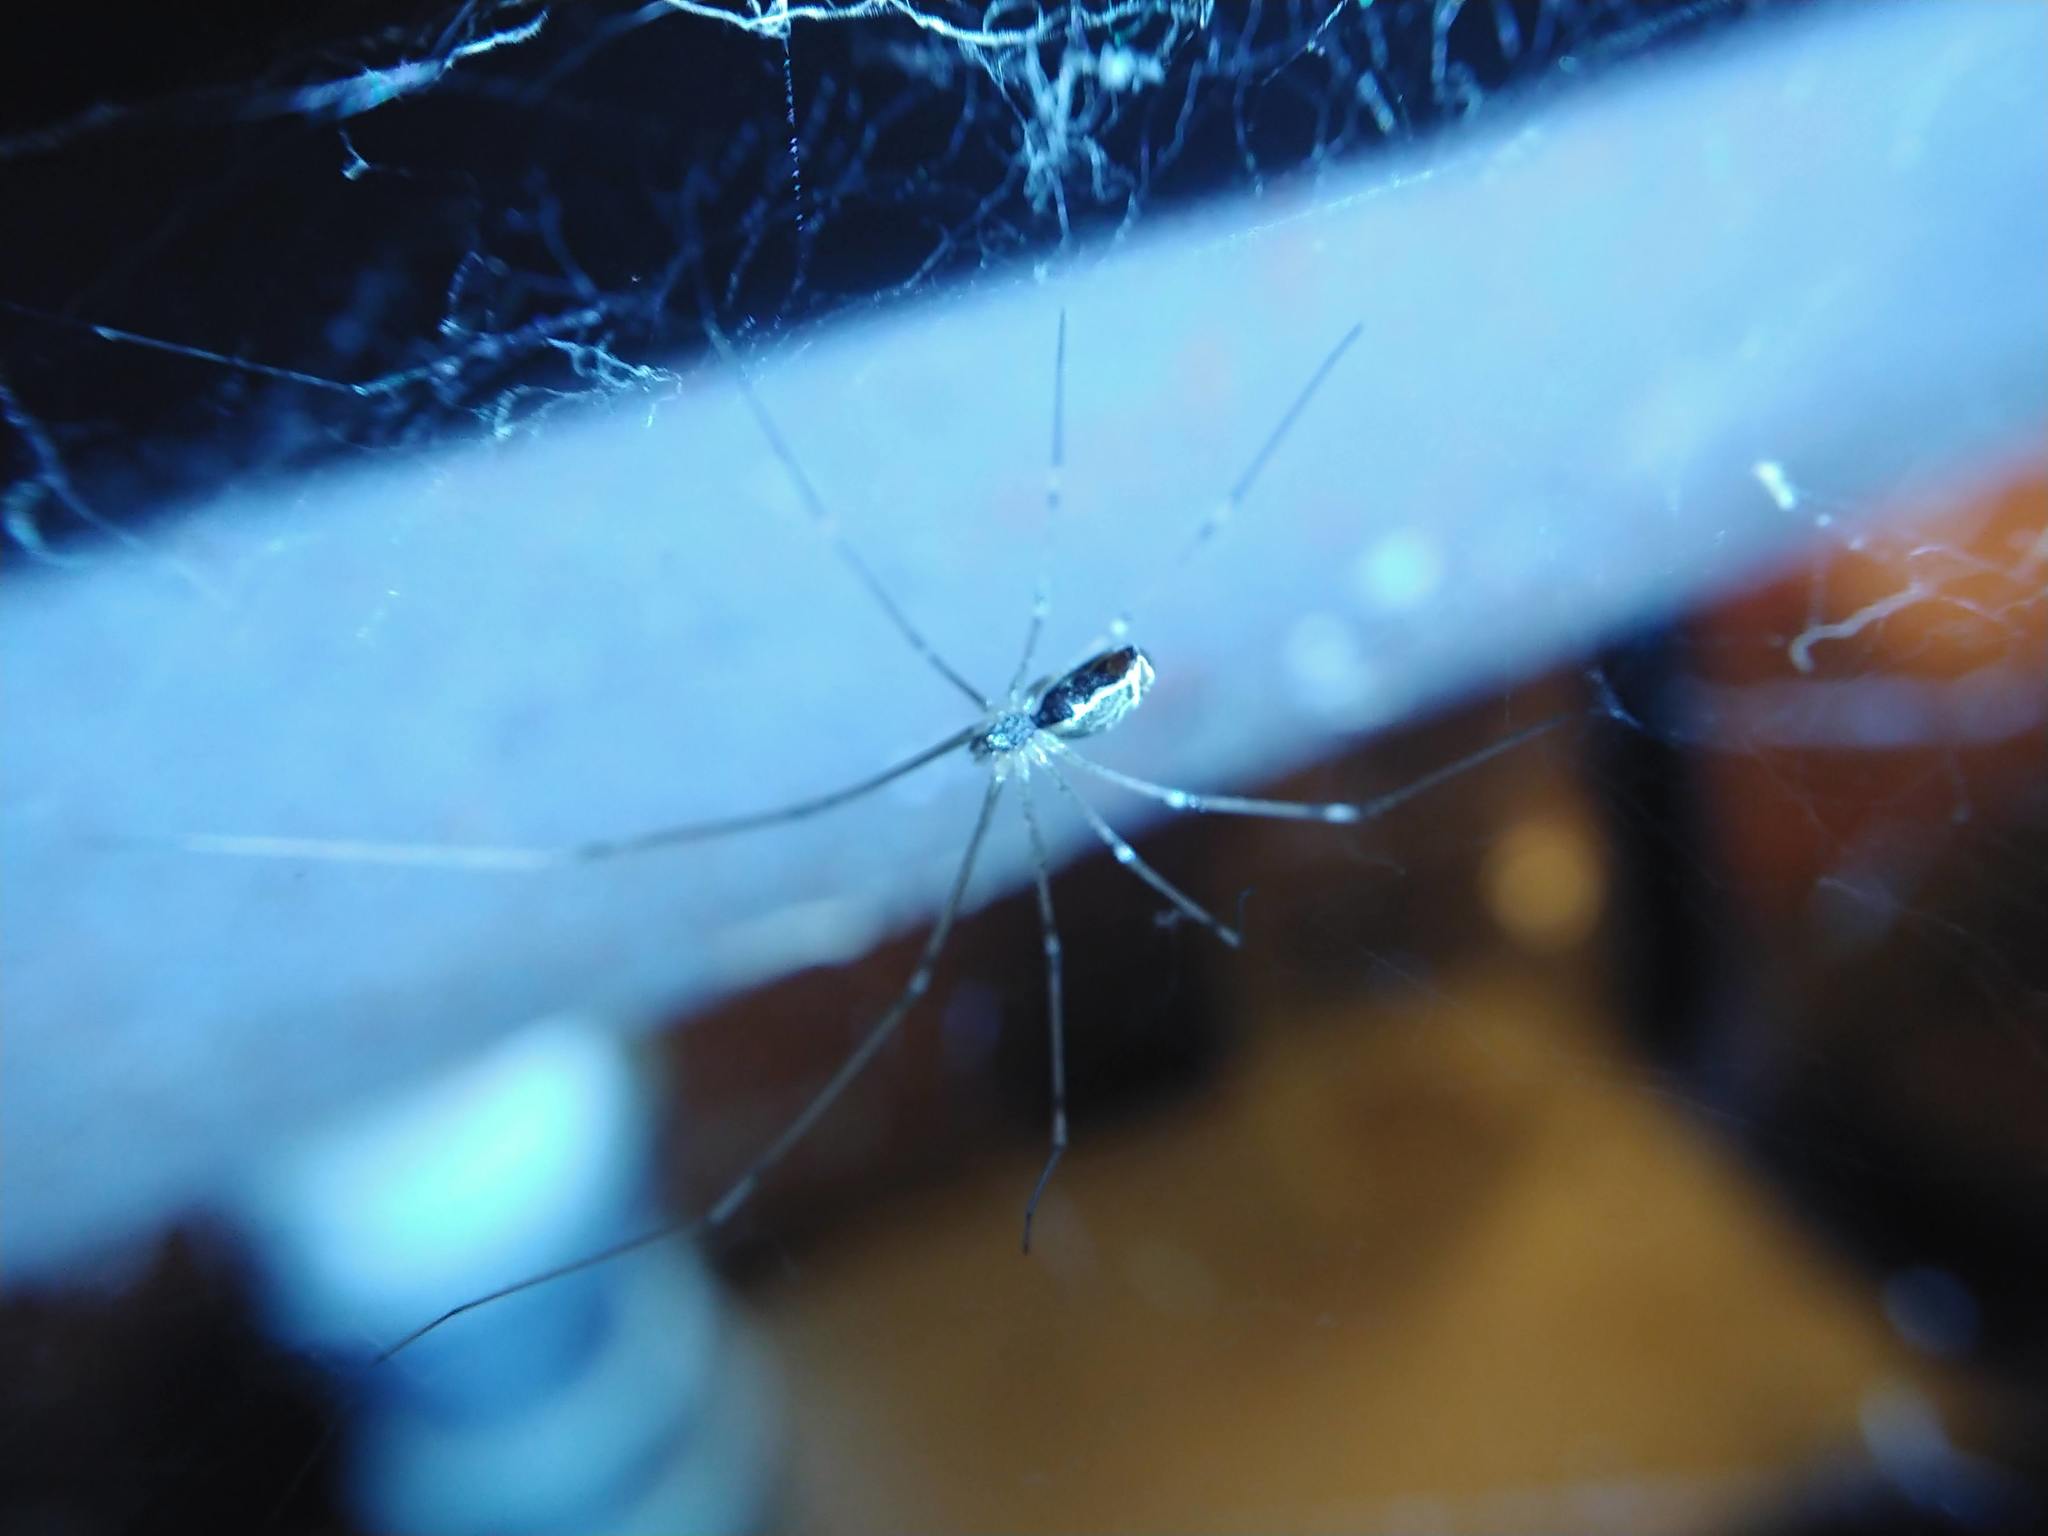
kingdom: Animalia
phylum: Arthropoda
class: Arachnida
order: Araneae
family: Pholcidae
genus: Holocnemus
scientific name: Holocnemus pluchei
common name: Marbled cellar spider
